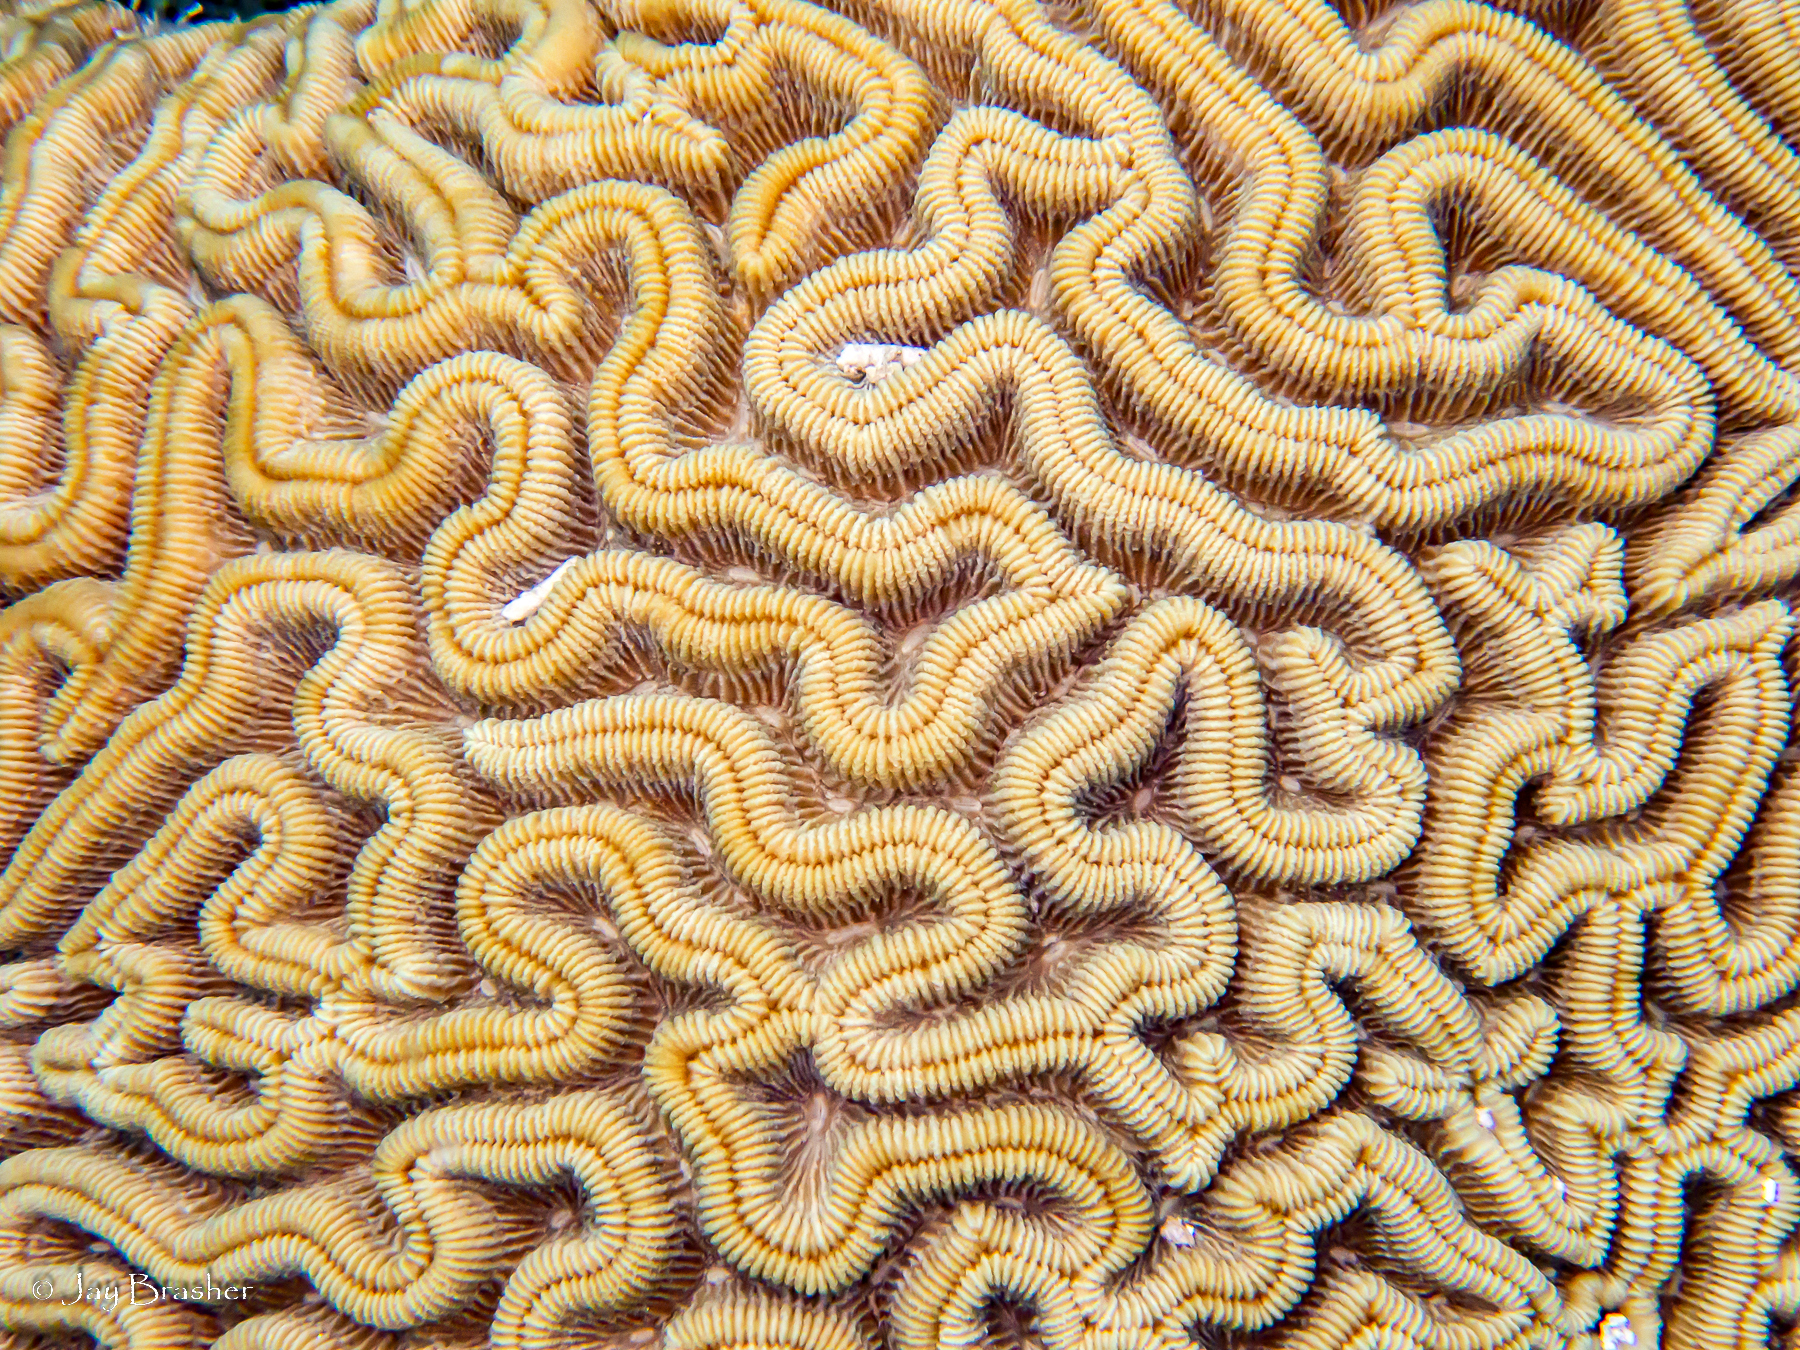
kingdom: Animalia
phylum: Cnidaria
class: Anthozoa
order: Scleractinia
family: Faviidae
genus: Colpophyllia
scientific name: Colpophyllia natans
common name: Boulder brain coral
